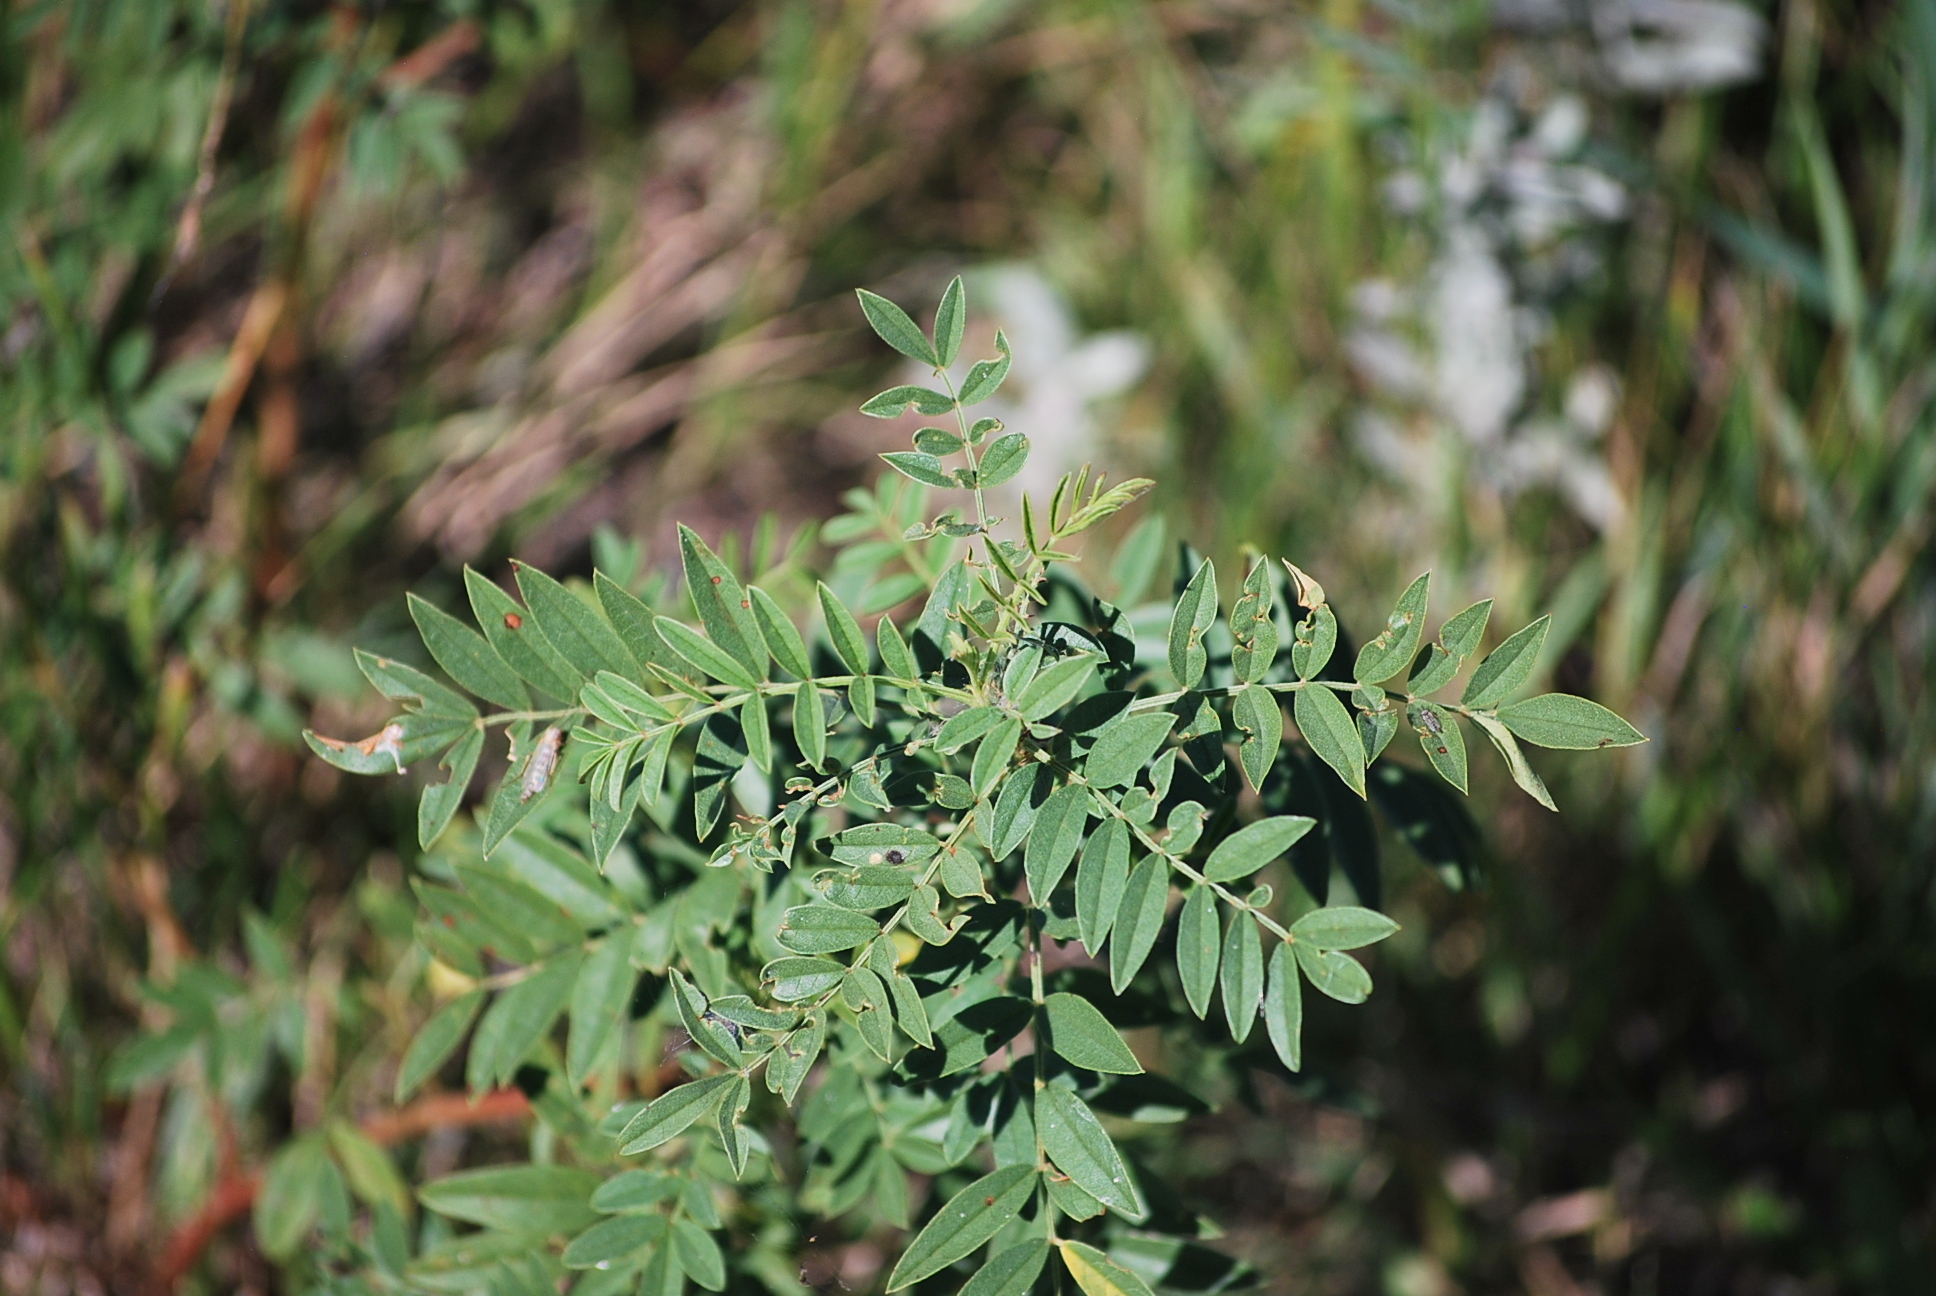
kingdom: Plantae
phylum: Tracheophyta
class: Magnoliopsida
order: Fabales
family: Fabaceae
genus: Glycyrrhiza
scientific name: Glycyrrhiza lepidota
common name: American liquorice
